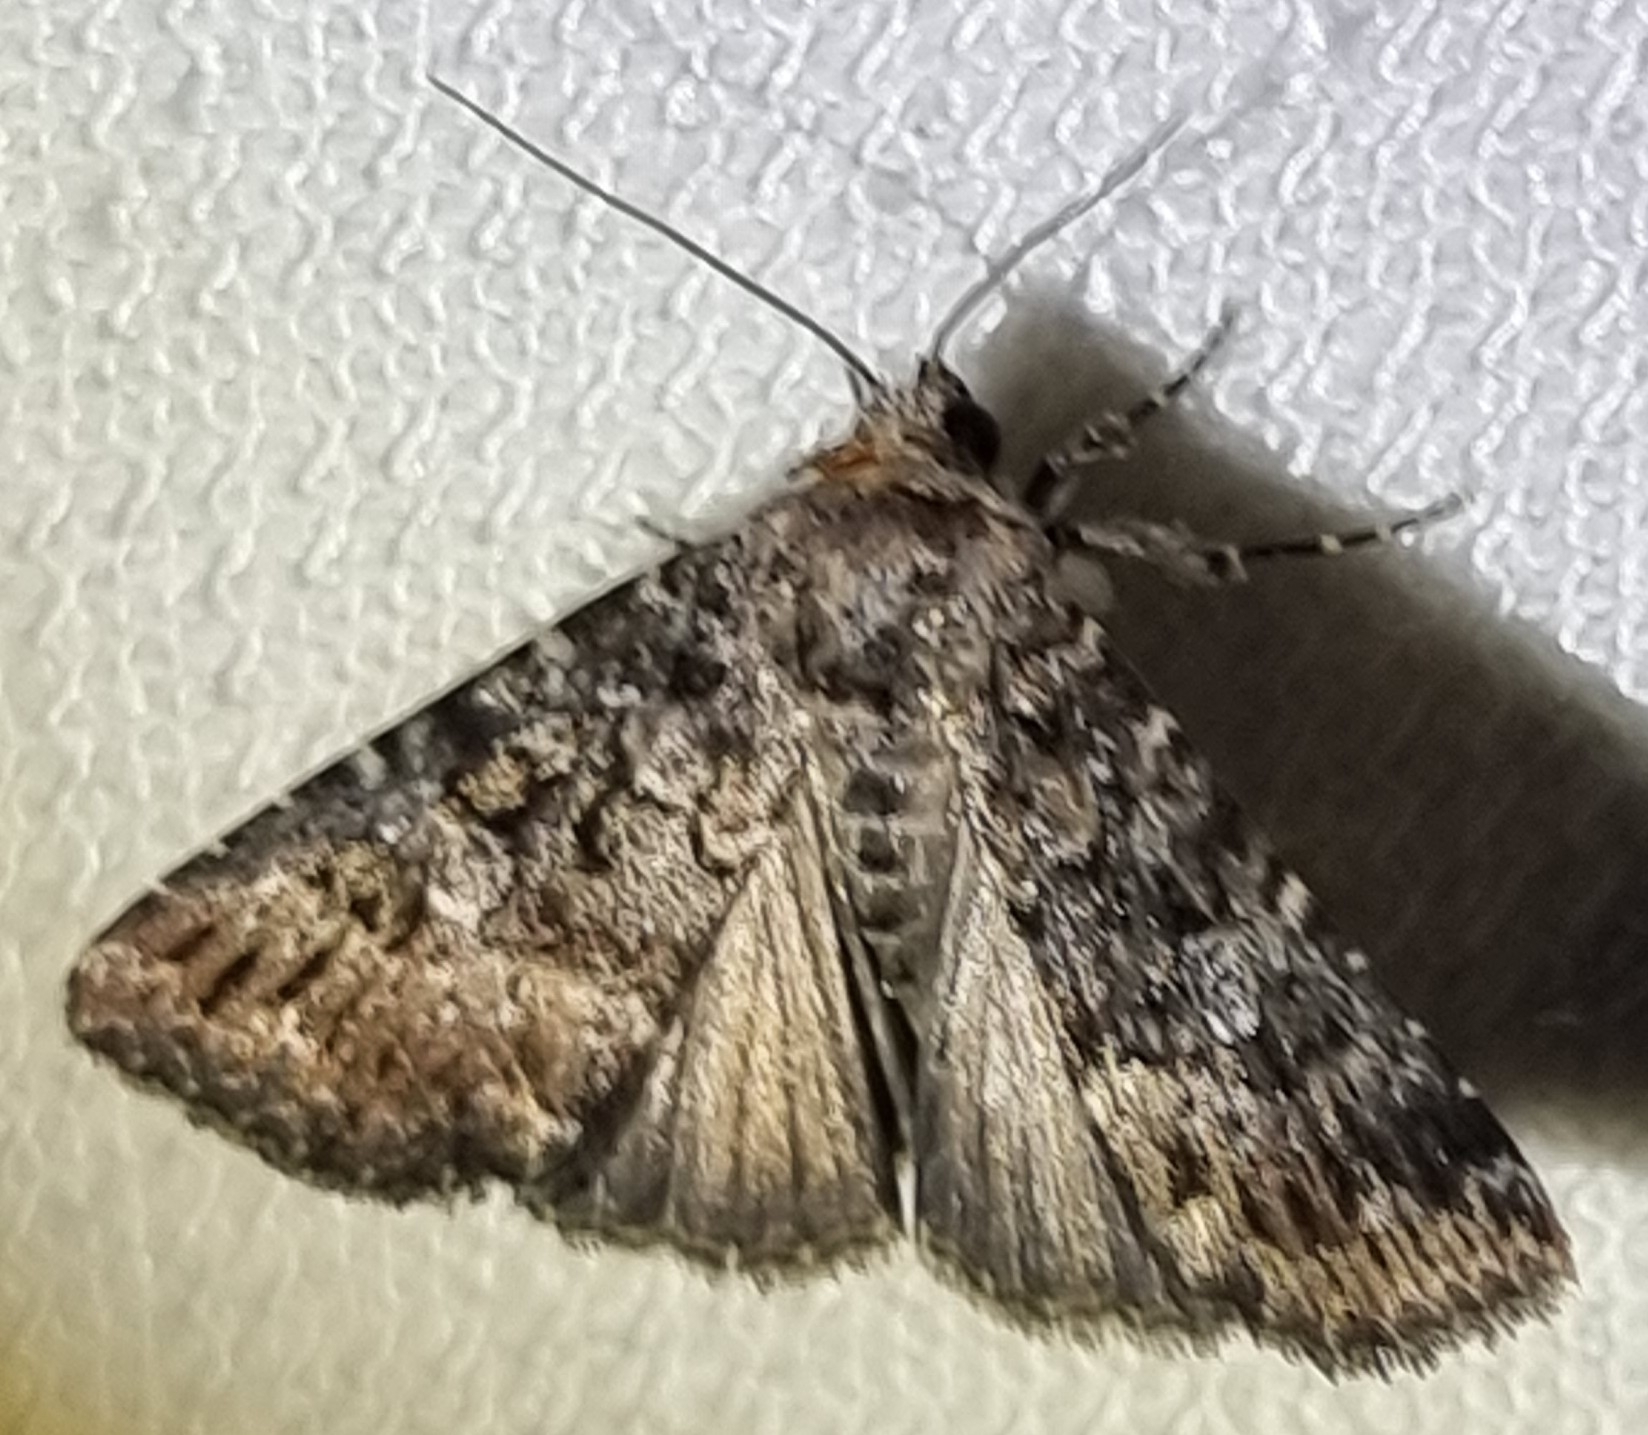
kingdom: Animalia
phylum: Arthropoda
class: Insecta
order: Lepidoptera
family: Noctuidae
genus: Condica
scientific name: Condica aroana
